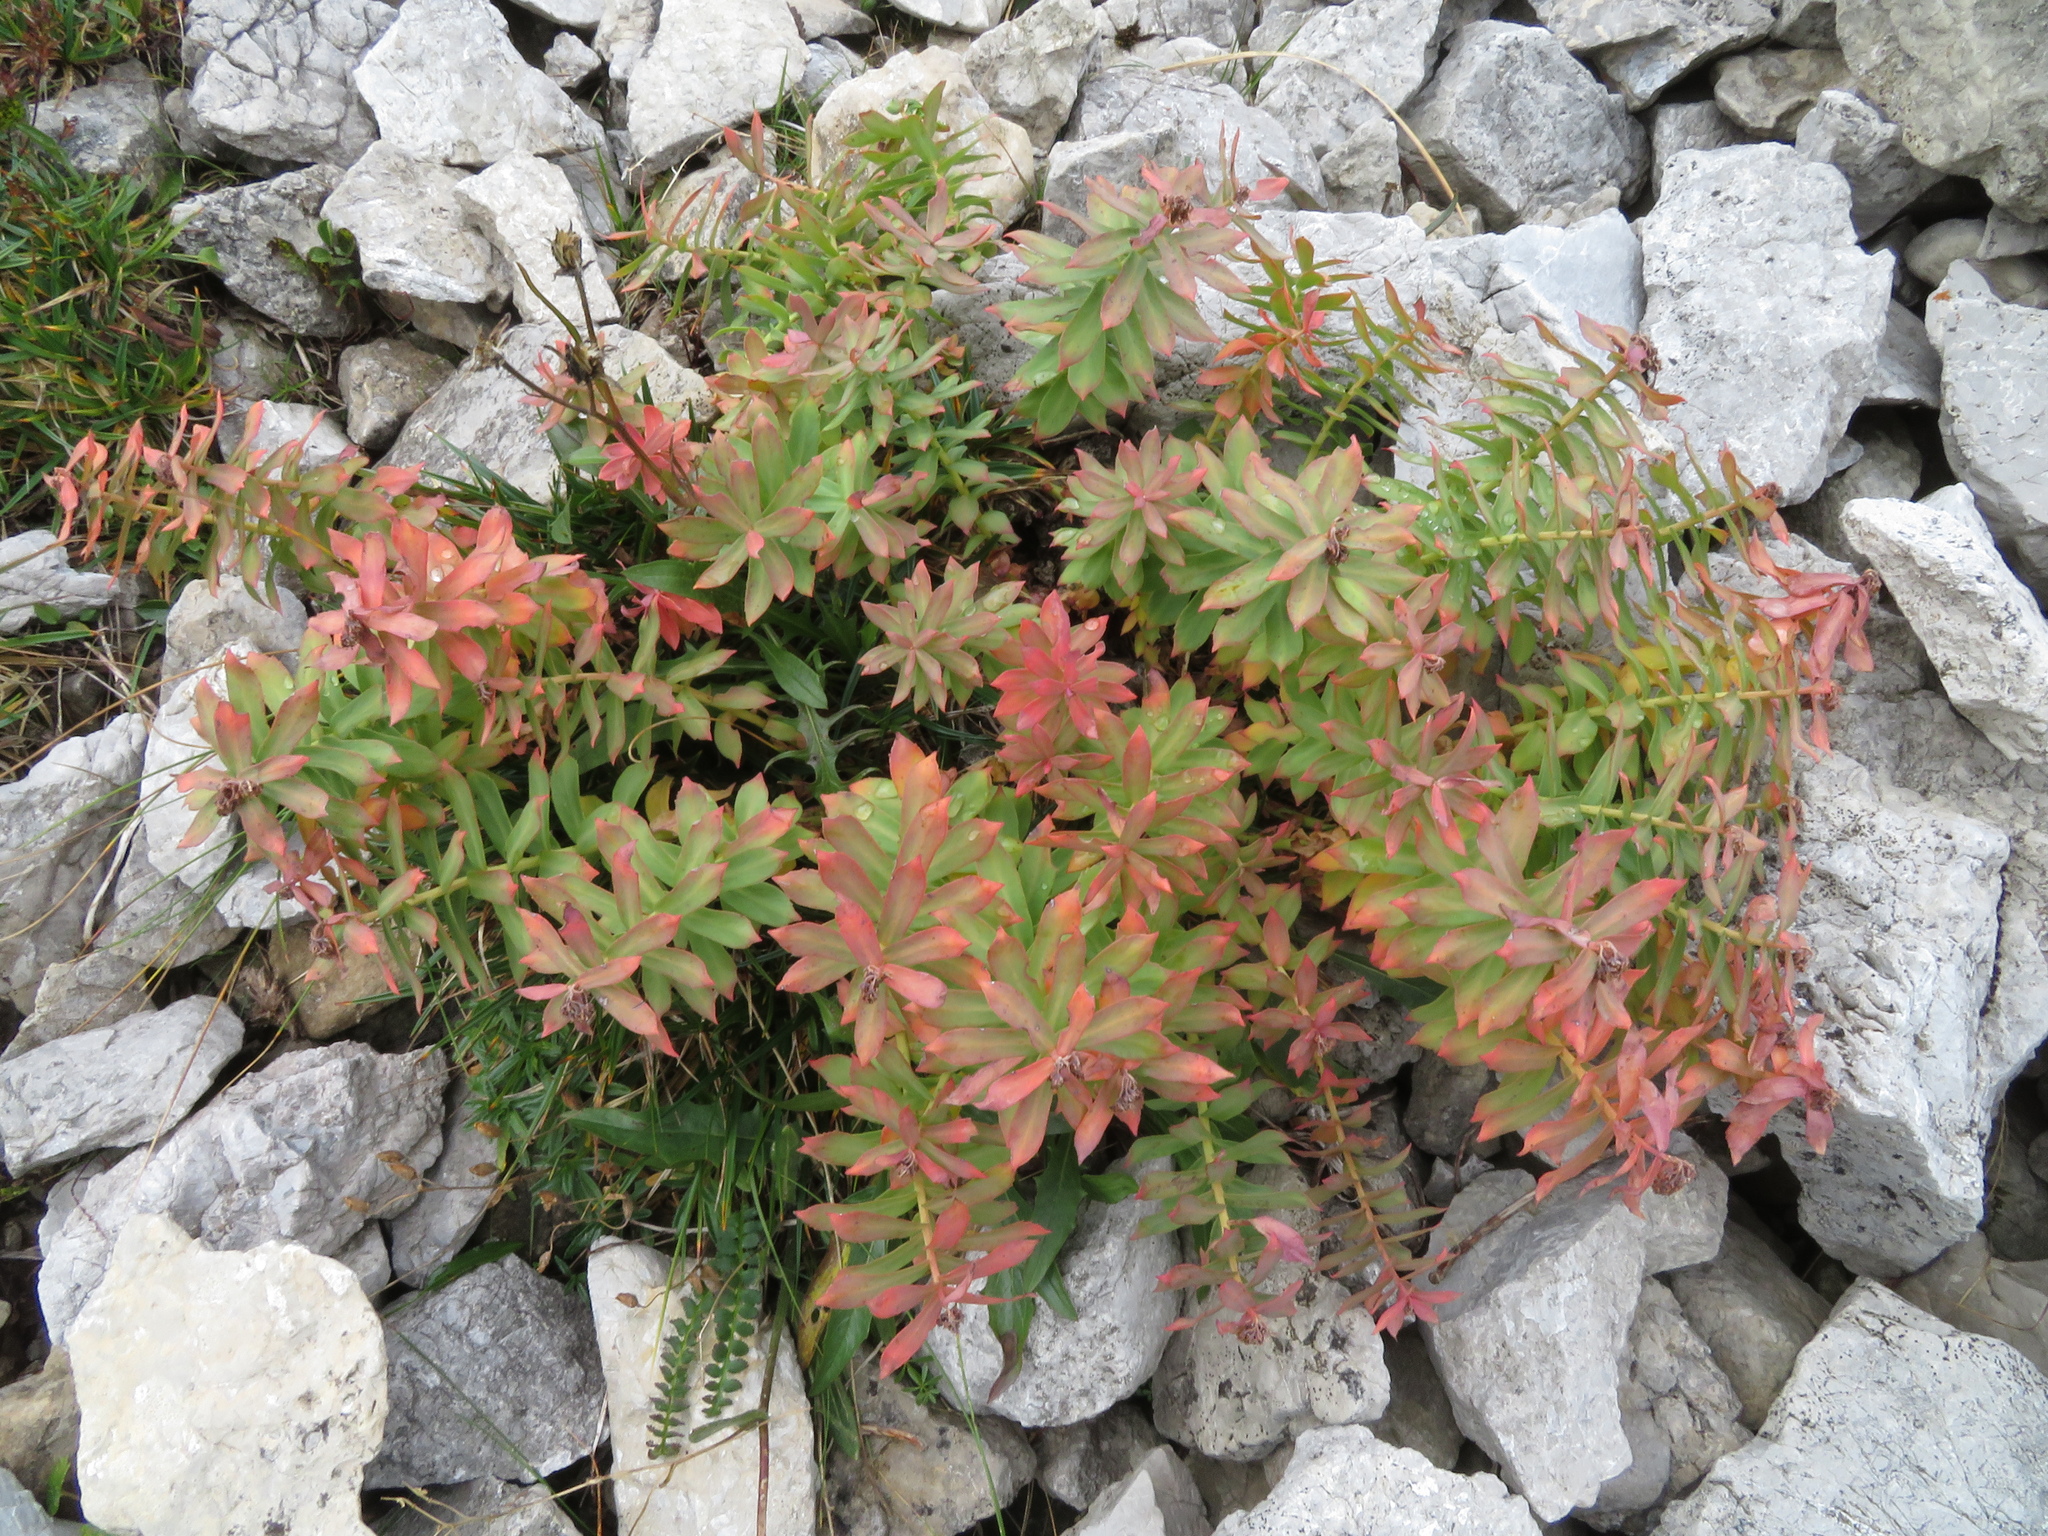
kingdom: Plantae
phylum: Tracheophyta
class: Magnoliopsida
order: Saxifragales
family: Crassulaceae
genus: Rhodiola
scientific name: Rhodiola rosea
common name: Roseroot
